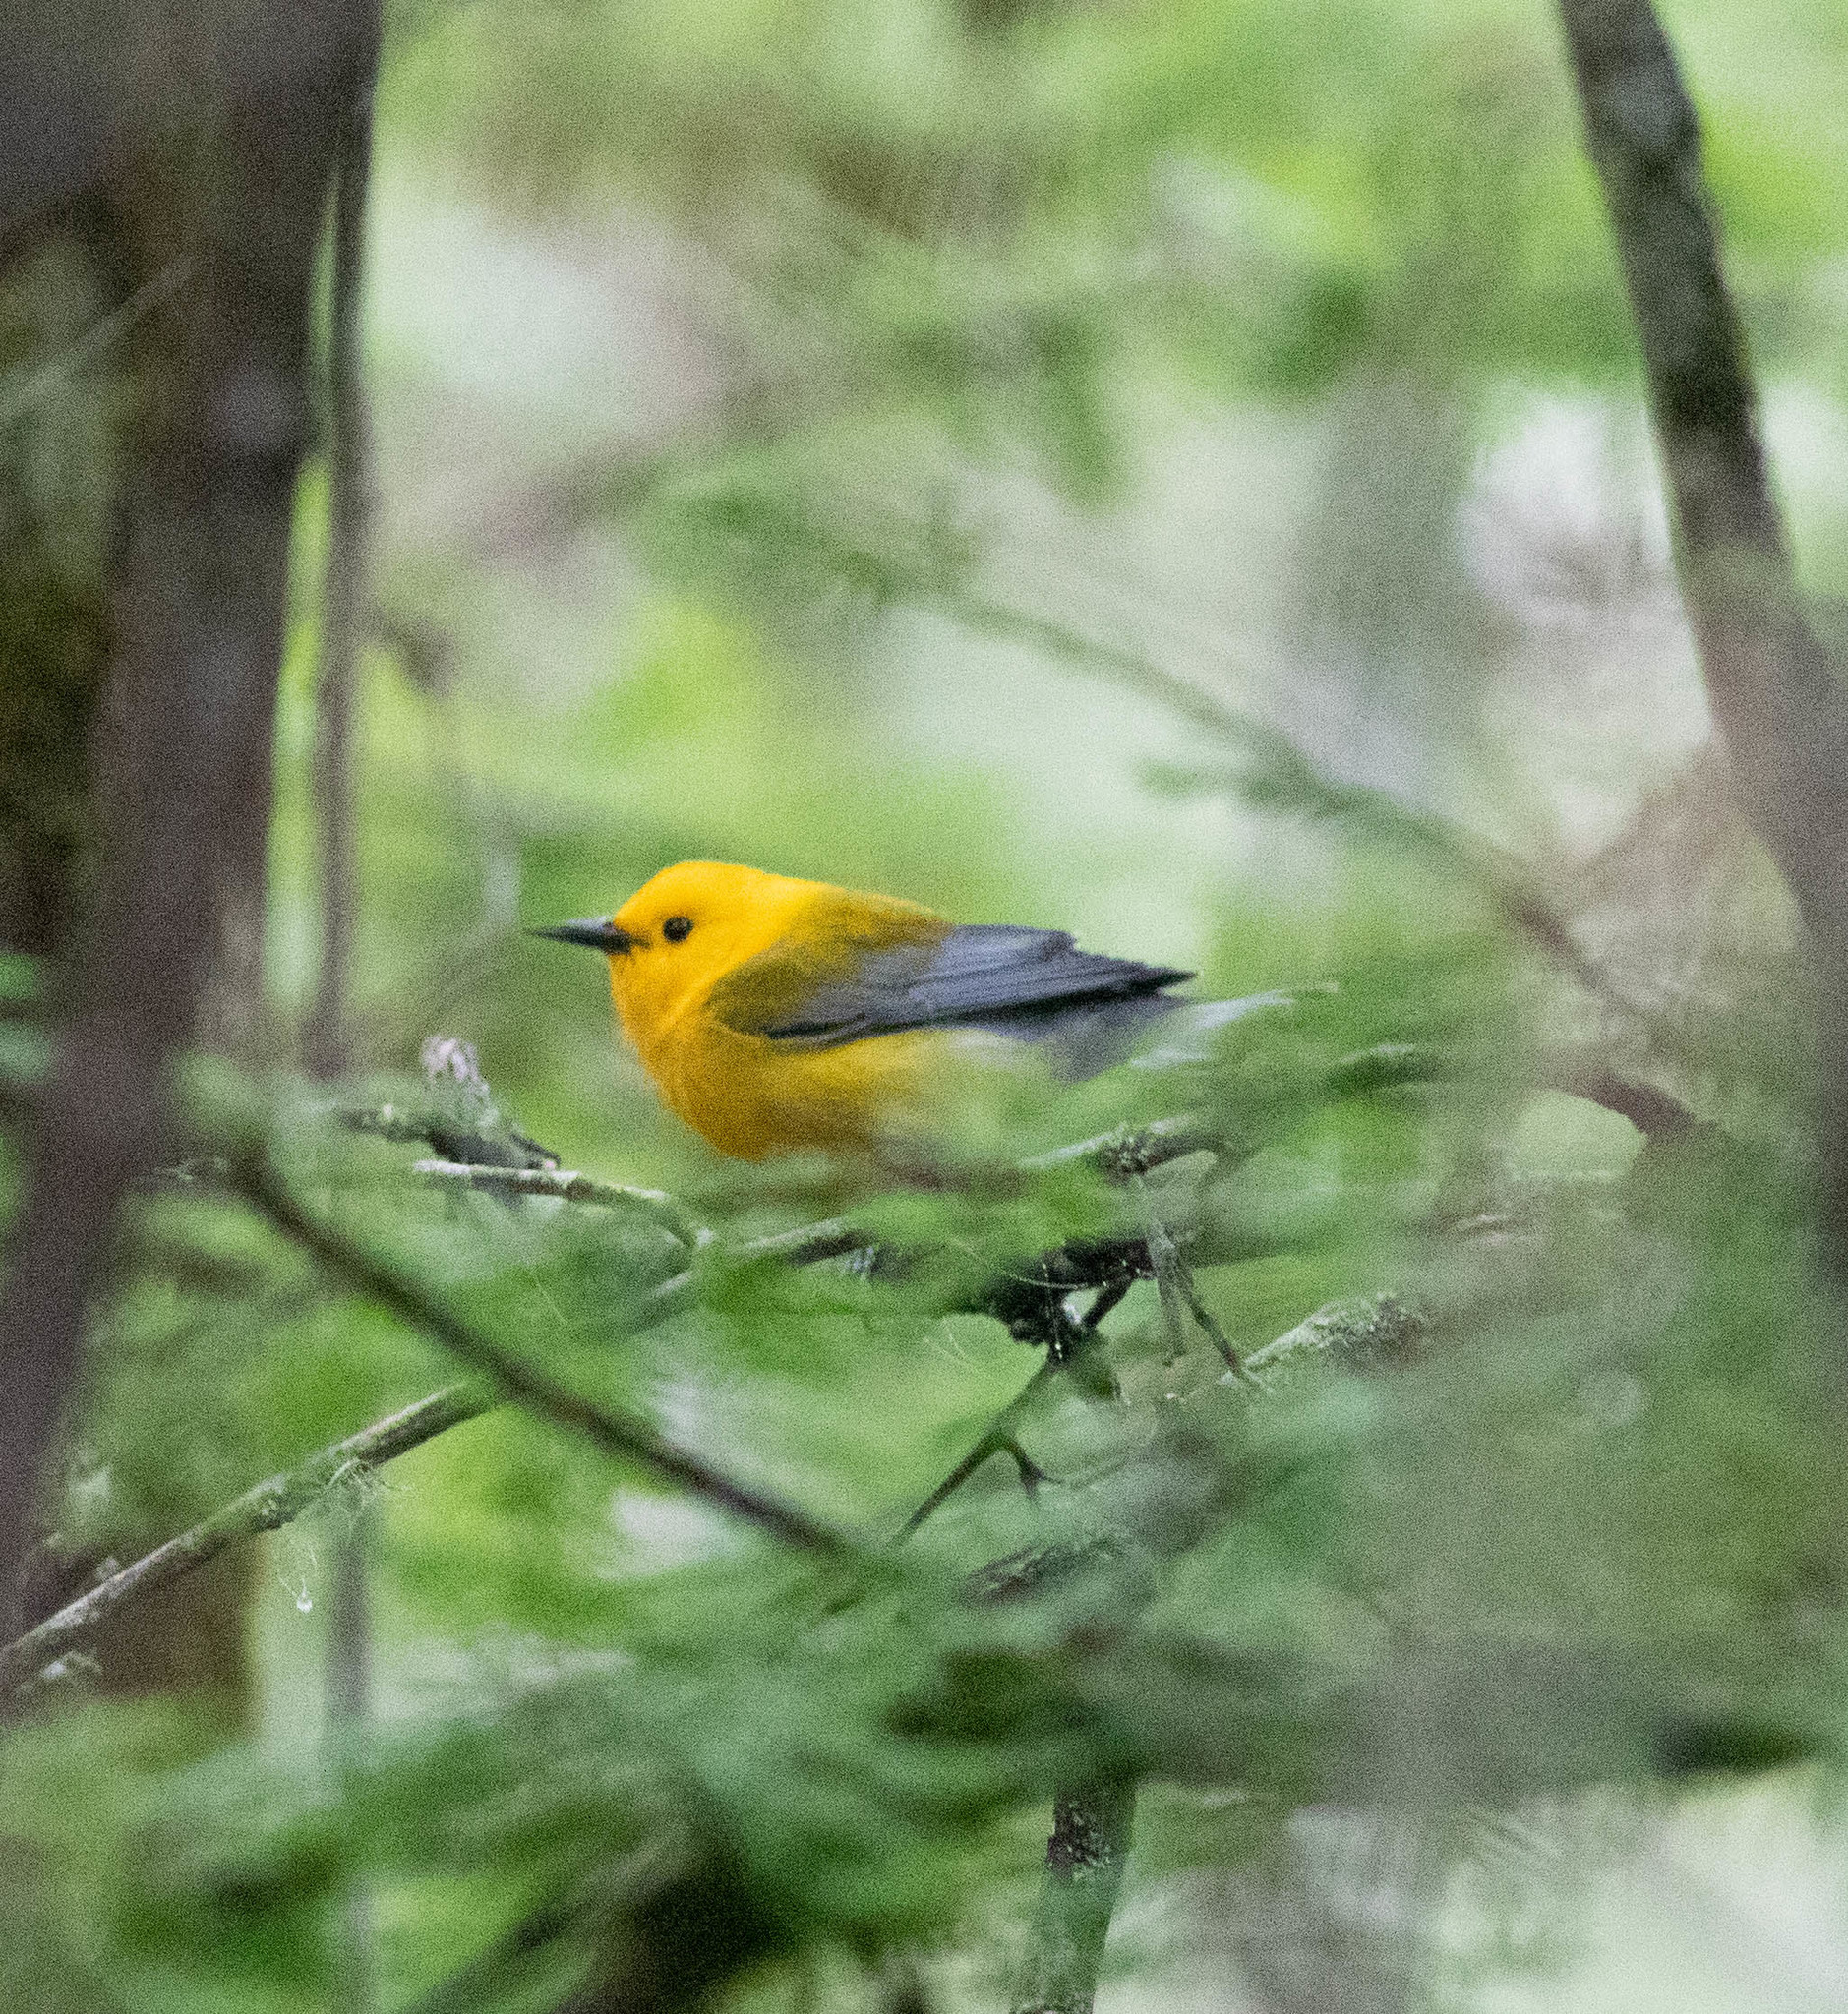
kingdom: Animalia
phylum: Chordata
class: Aves
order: Passeriformes
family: Parulidae
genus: Protonotaria
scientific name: Protonotaria citrea
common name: Prothonotary warbler
